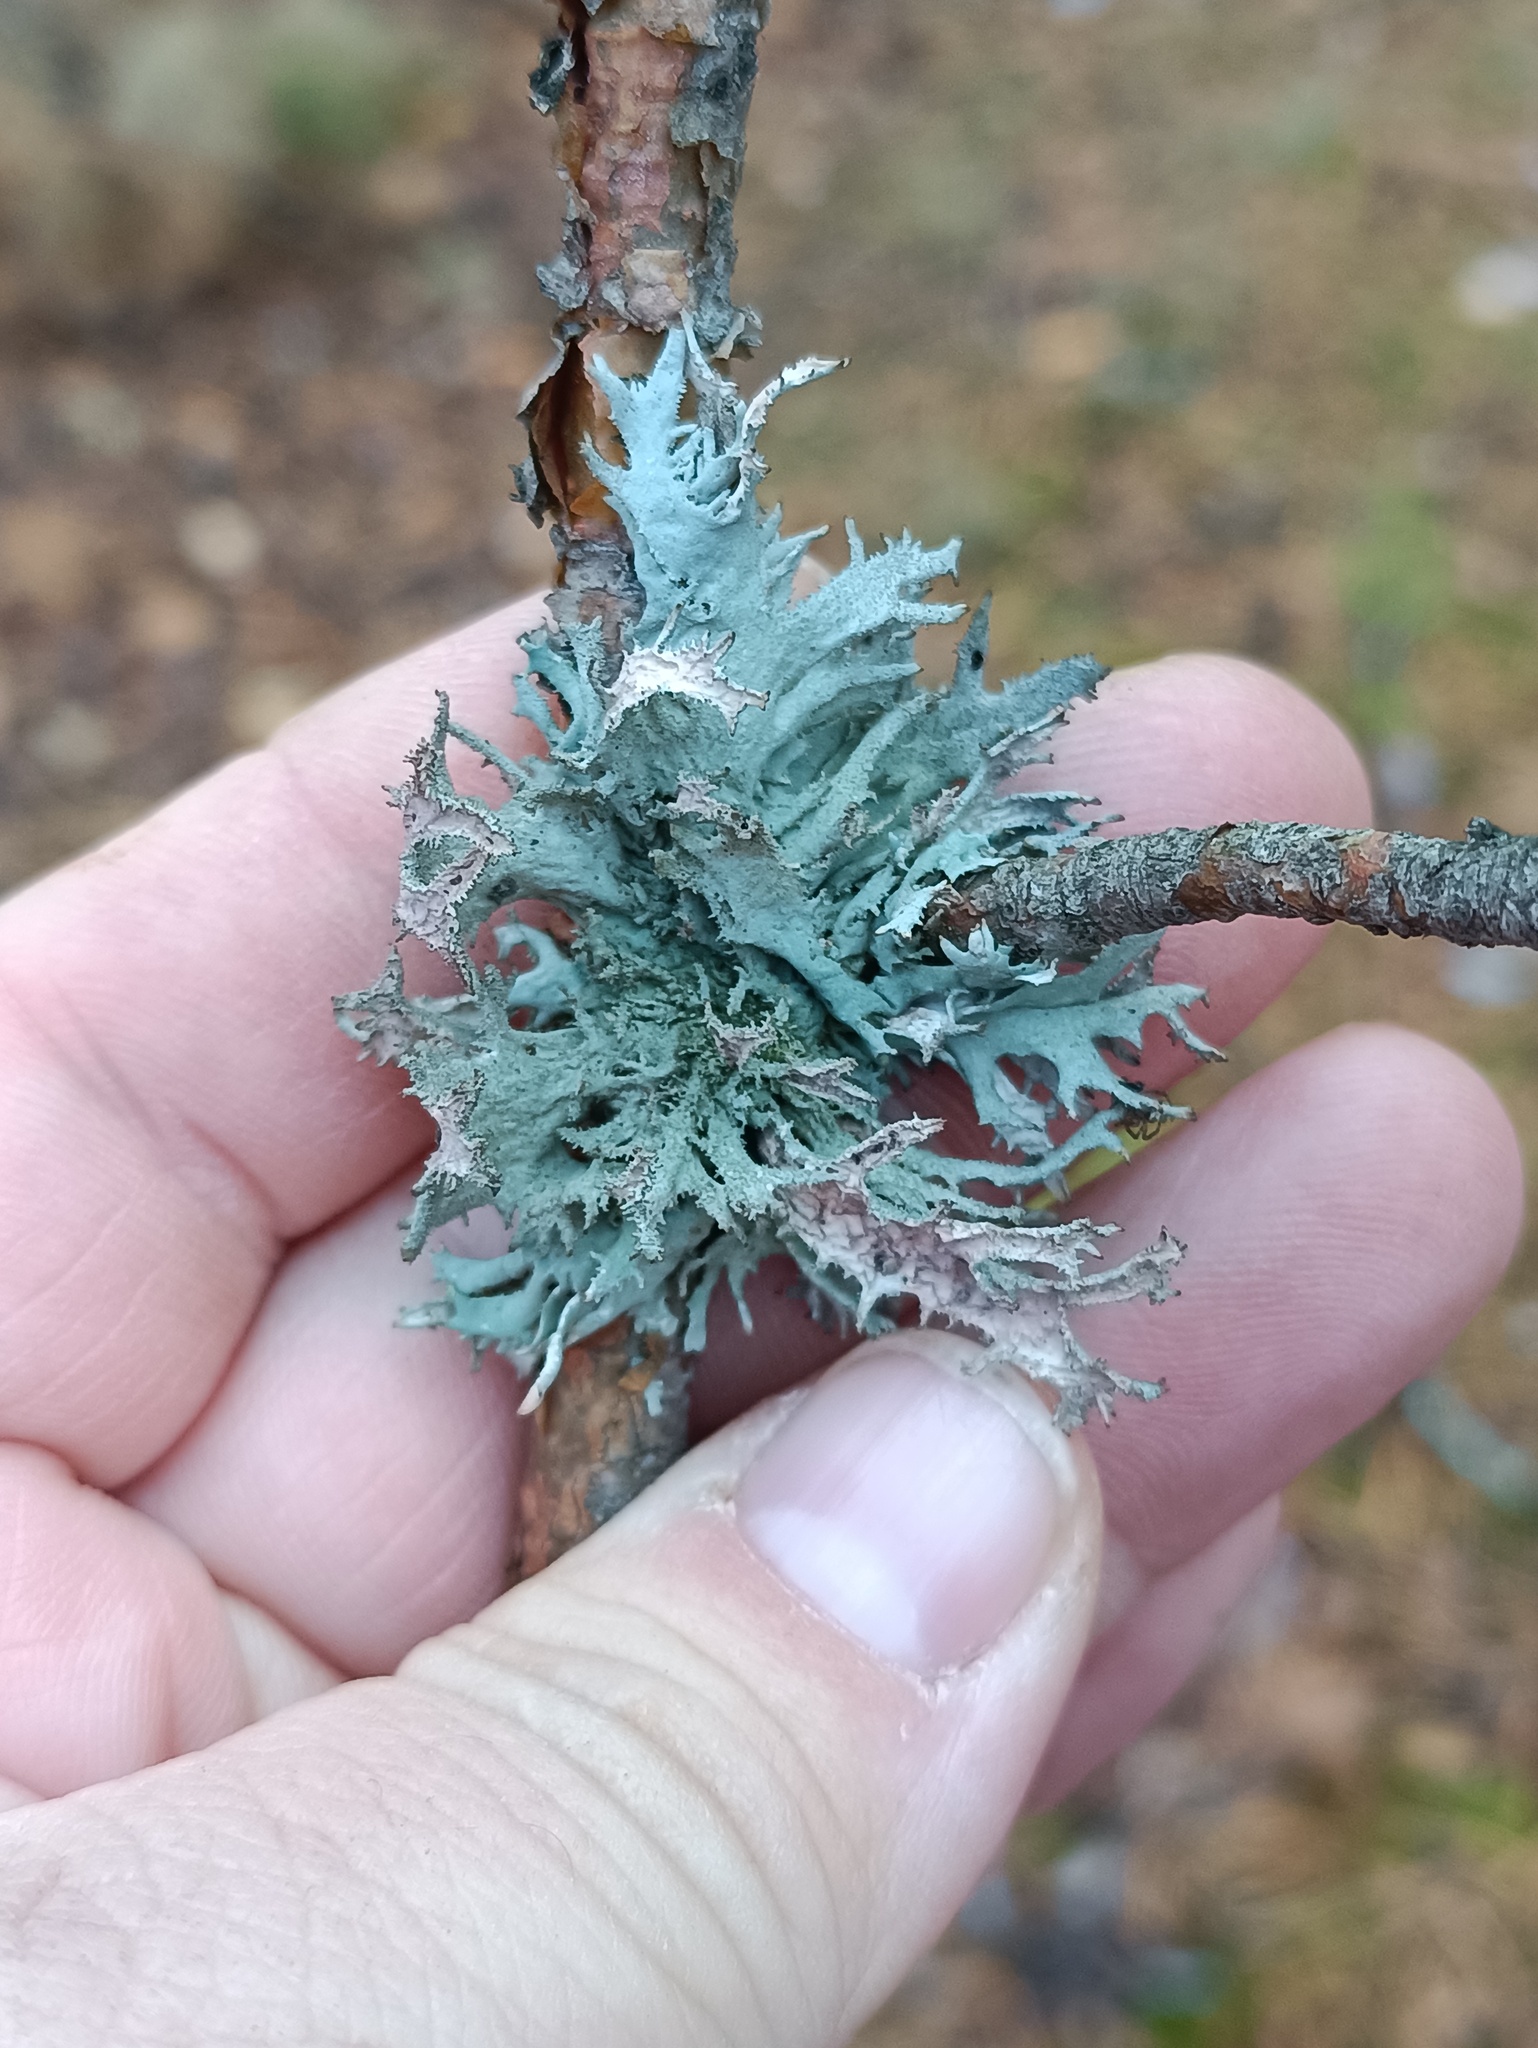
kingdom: Fungi
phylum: Ascomycota
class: Lecanoromycetes
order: Lecanorales
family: Parmeliaceae
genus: Pseudevernia
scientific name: Pseudevernia furfuracea
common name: Tree moss
